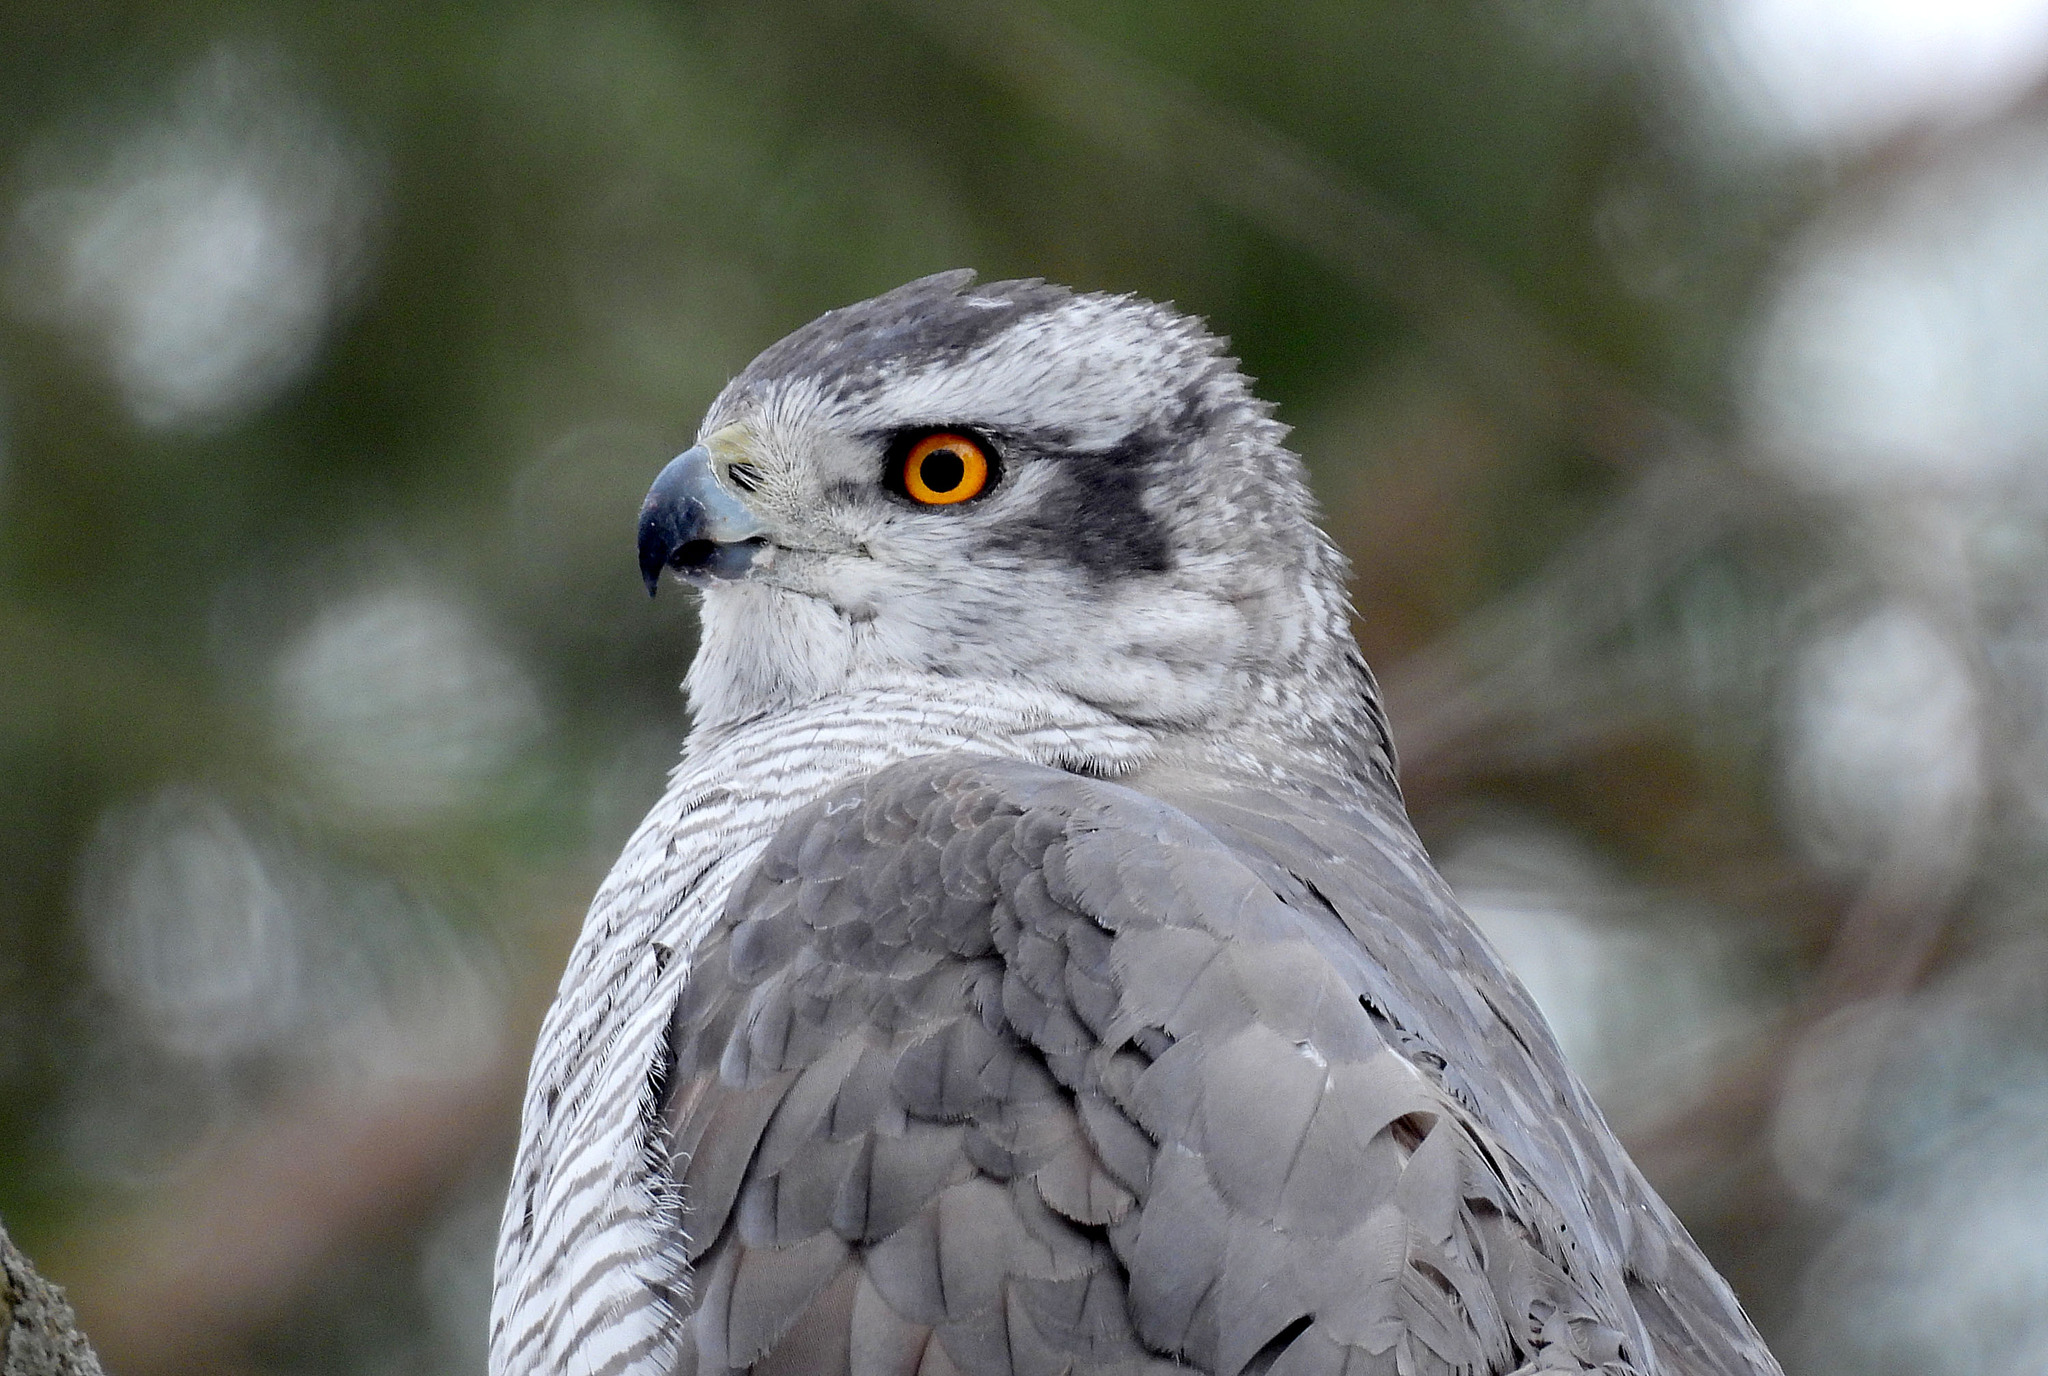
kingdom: Animalia
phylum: Chordata
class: Aves
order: Accipitriformes
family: Accipitridae
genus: Accipiter
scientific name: Accipiter gentilis
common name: Northern goshawk
